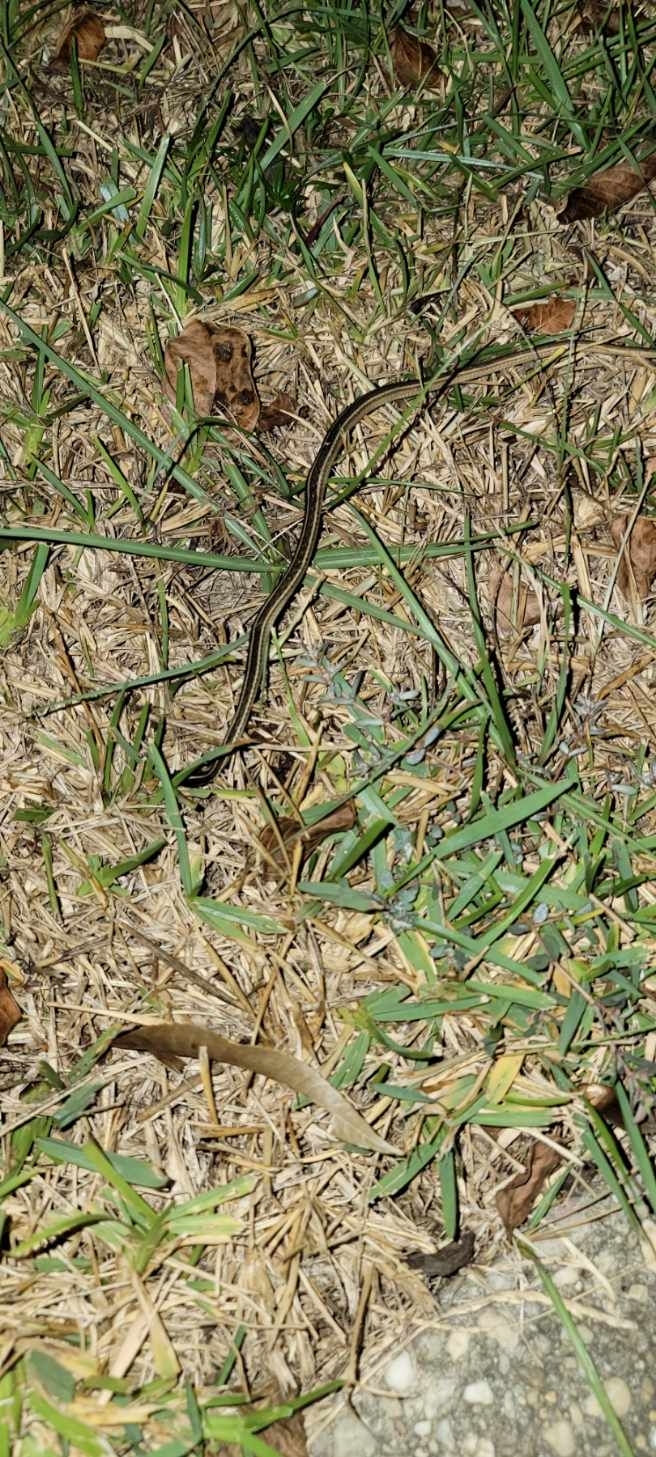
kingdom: Animalia
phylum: Chordata
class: Squamata
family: Colubridae
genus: Thamnophis
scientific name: Thamnophis saurita
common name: Eastern ribbonsnake
